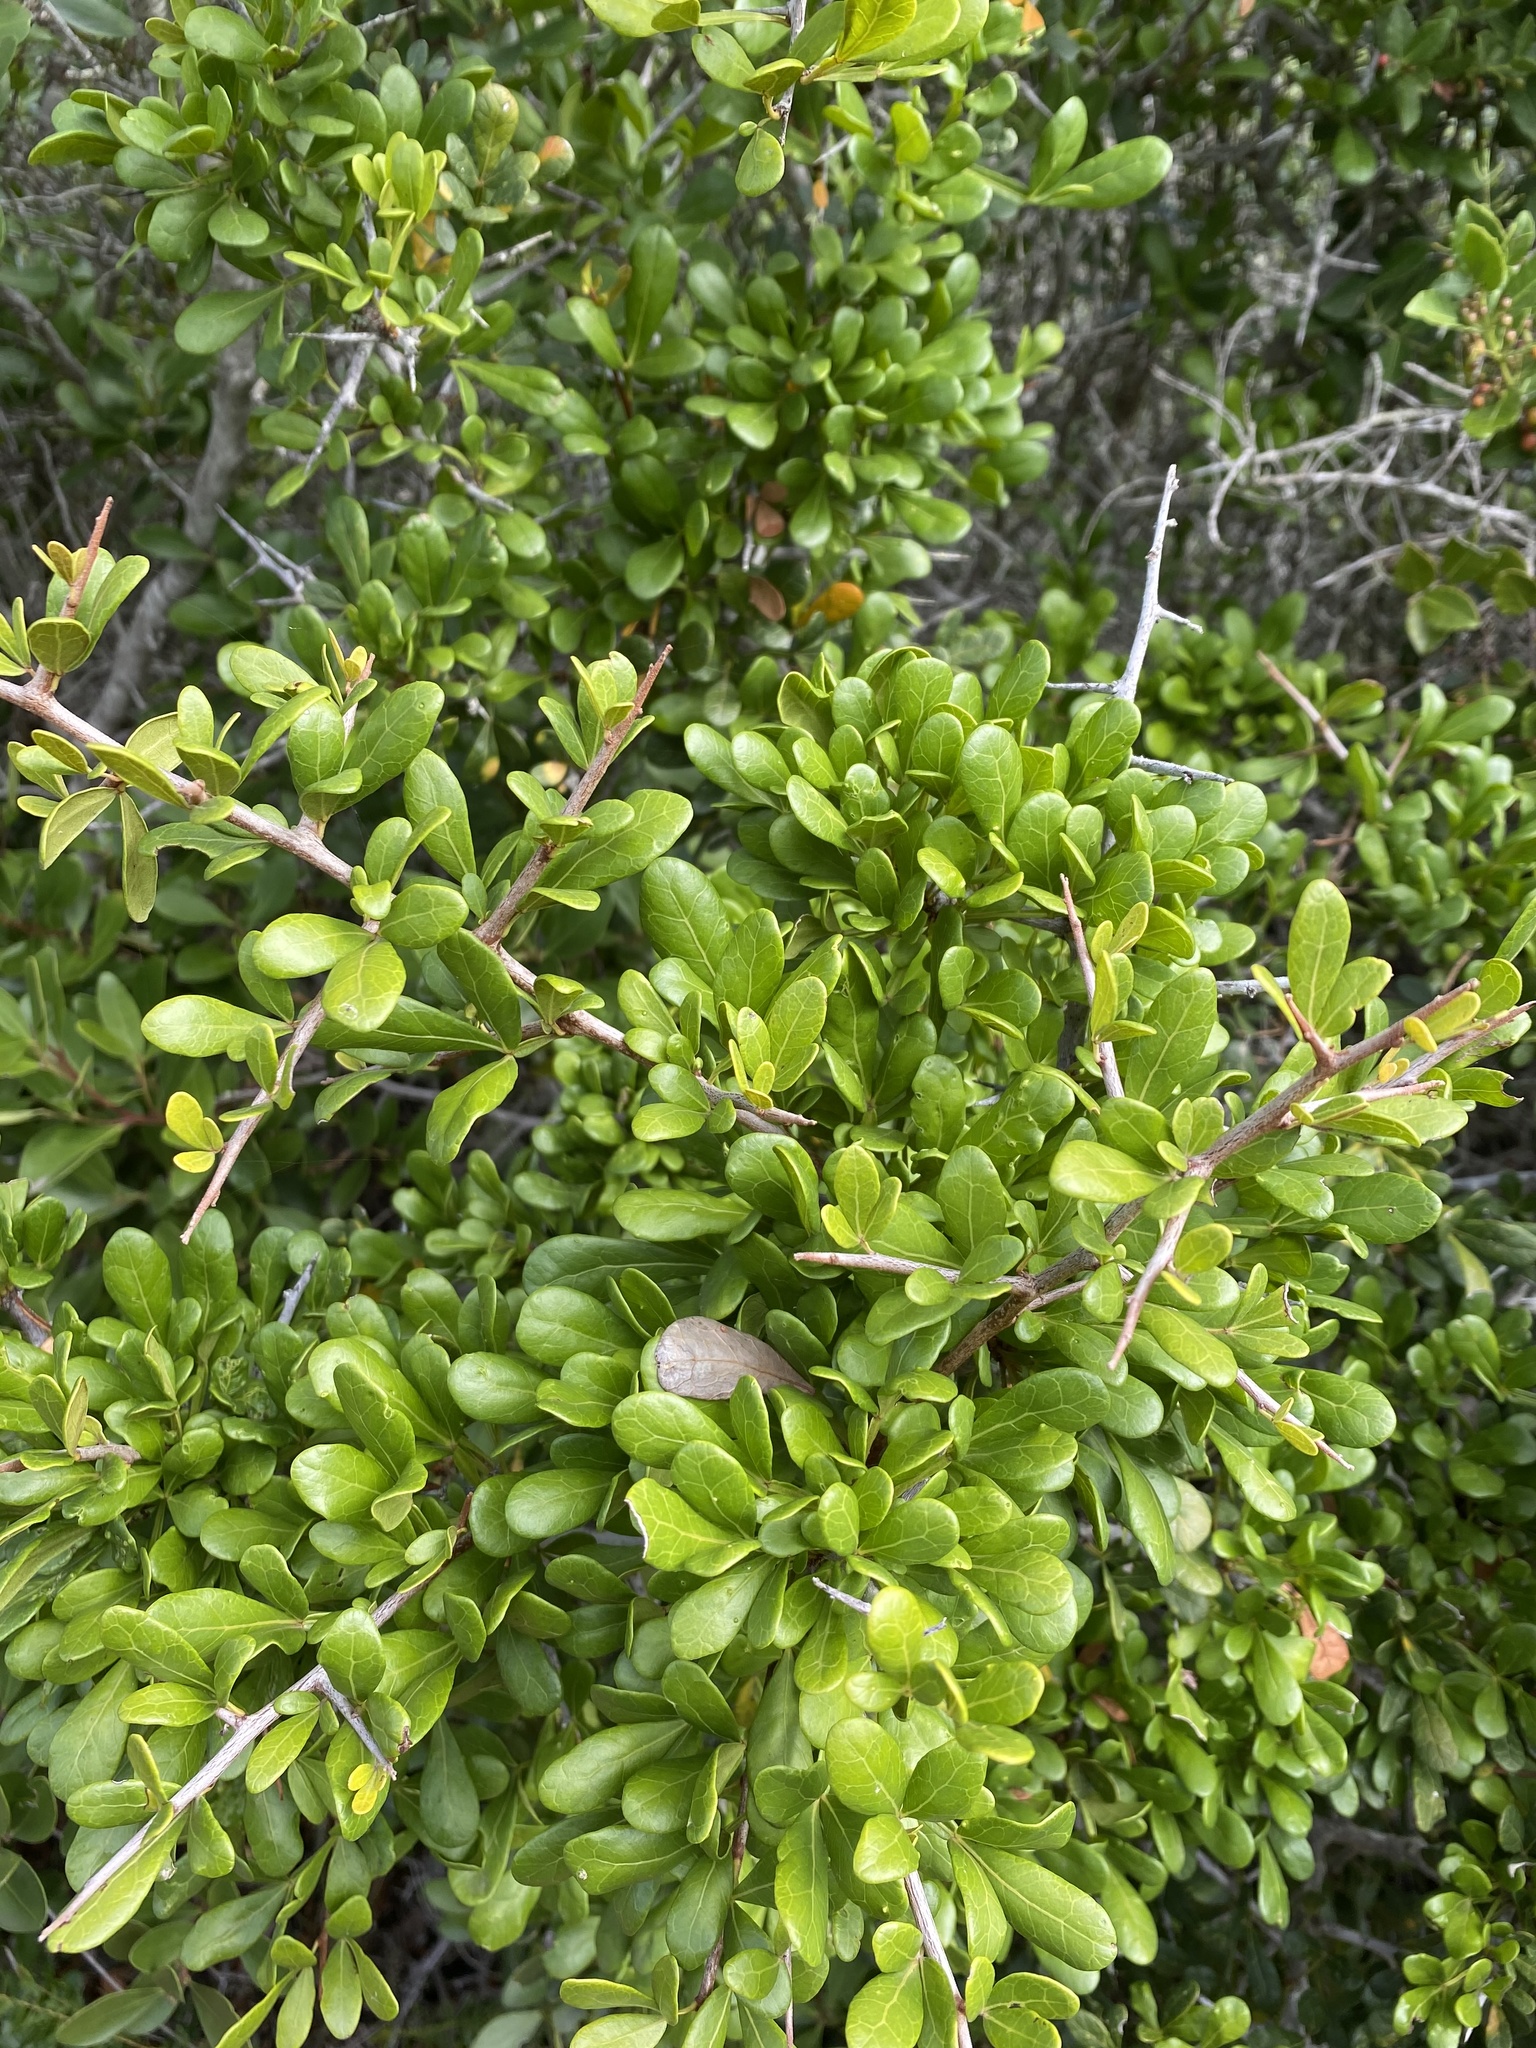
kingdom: Plantae
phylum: Tracheophyta
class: Magnoliopsida
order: Sapindales
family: Anacardiaceae
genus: Searsia
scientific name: Searsia pterota
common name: Winged currant
